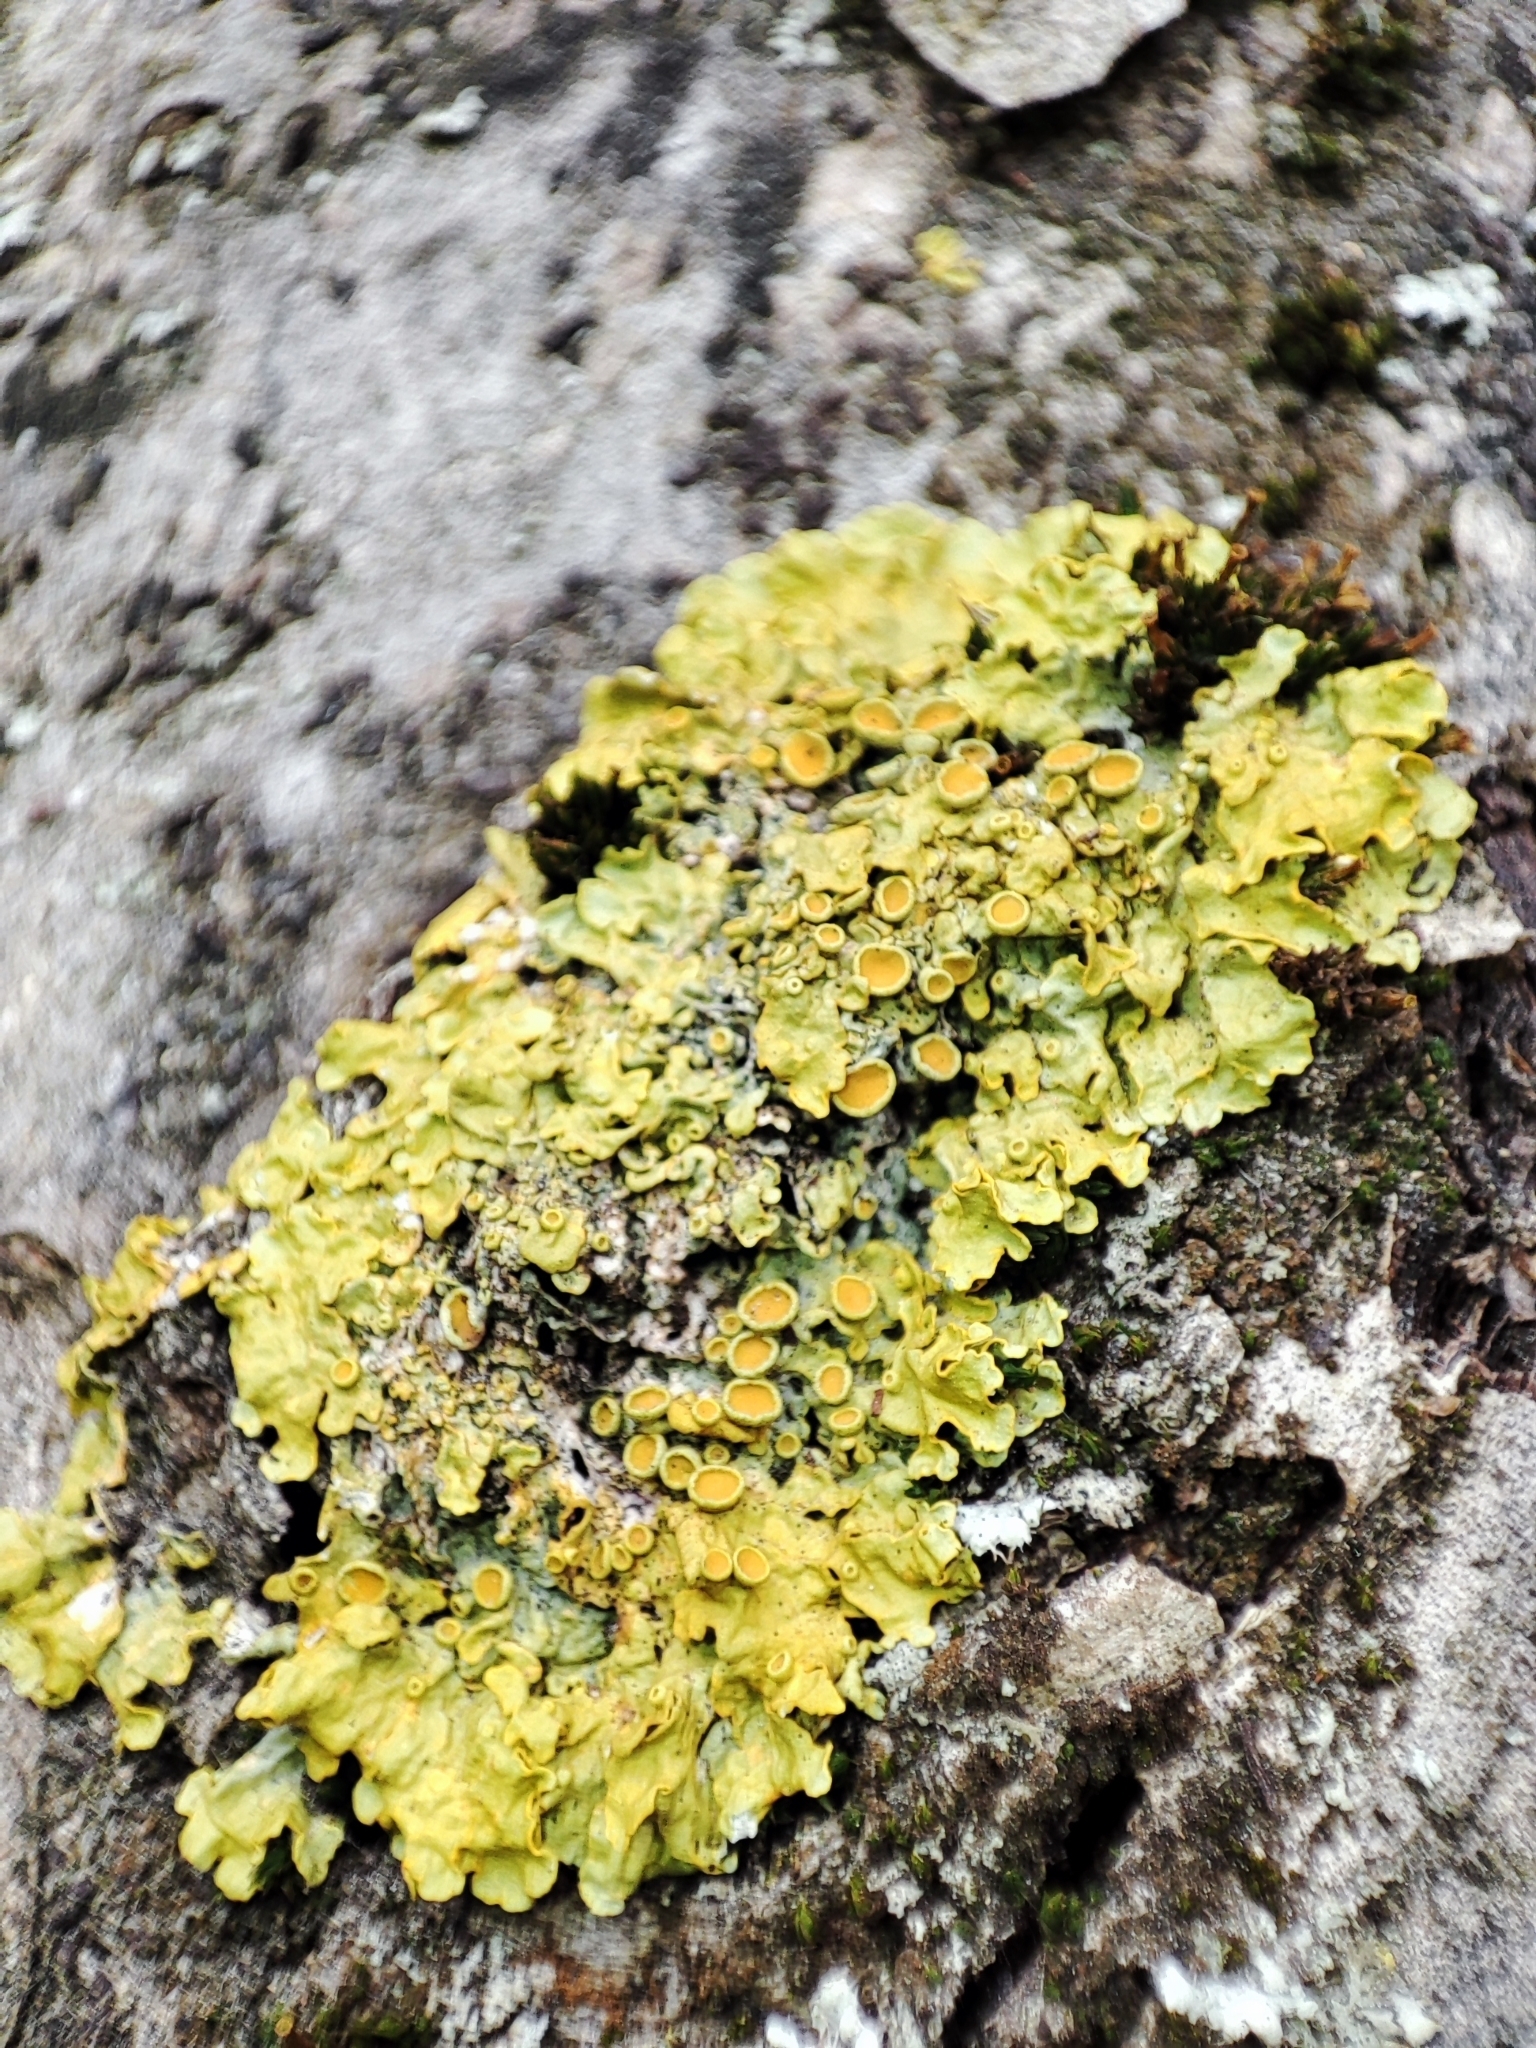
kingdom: Fungi
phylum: Ascomycota
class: Lecanoromycetes
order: Teloschistales
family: Teloschistaceae
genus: Xanthoria
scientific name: Xanthoria parietina
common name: Common orange lichen
